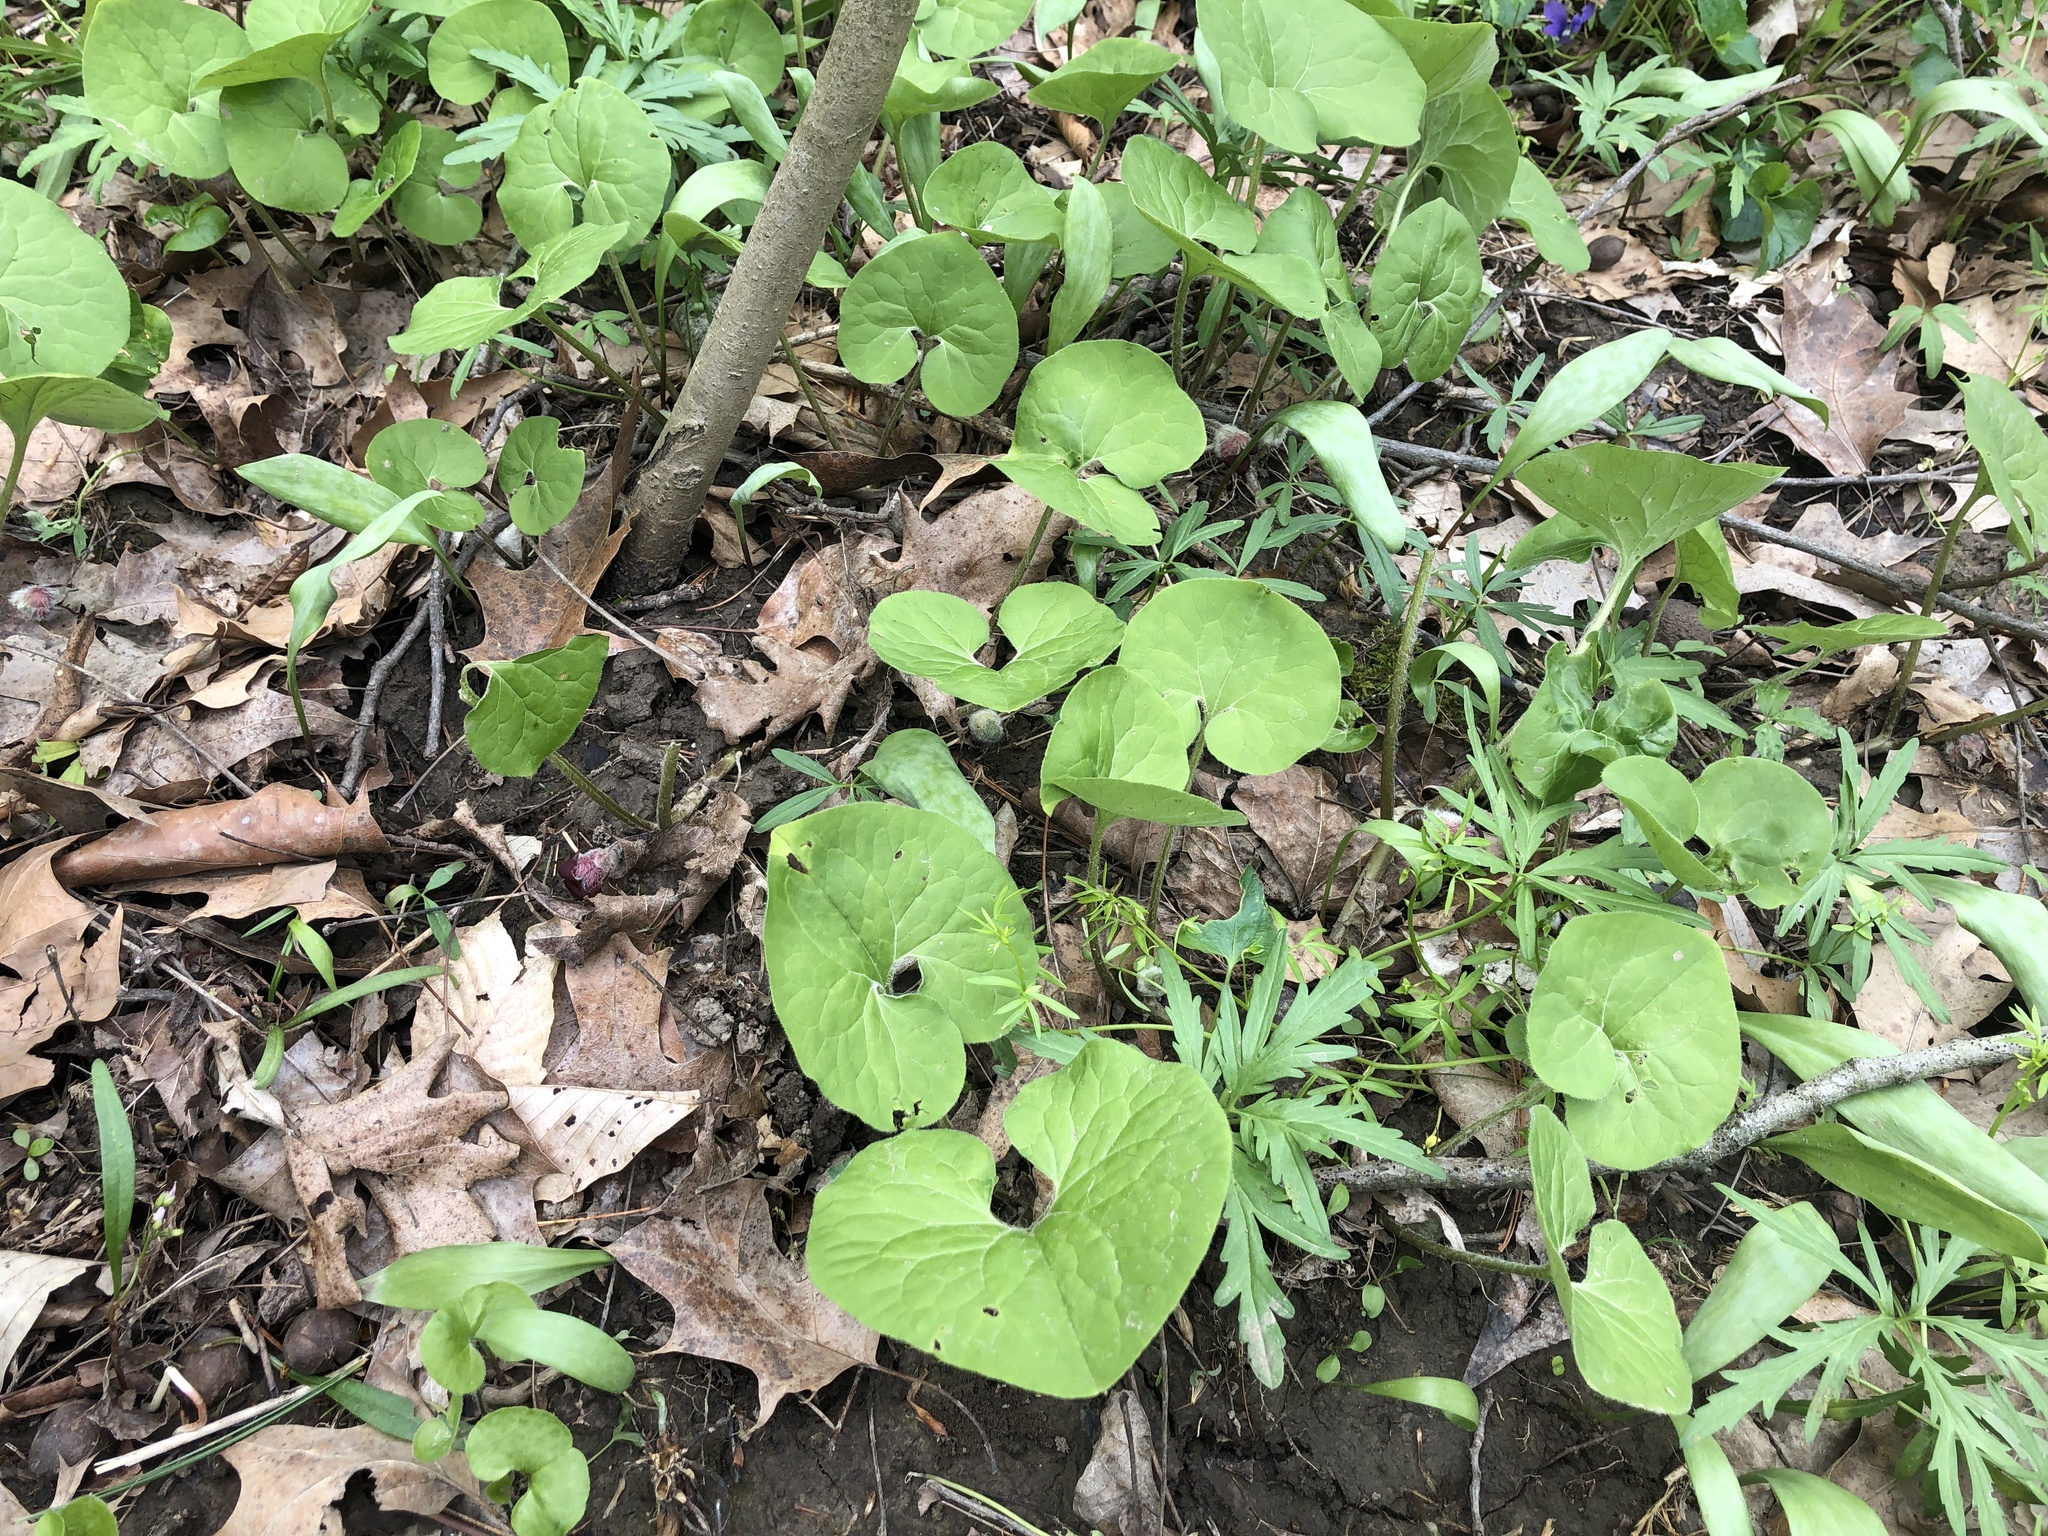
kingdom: Plantae
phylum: Tracheophyta
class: Magnoliopsida
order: Piperales
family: Aristolochiaceae
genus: Asarum
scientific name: Asarum canadense
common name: Wild ginger
